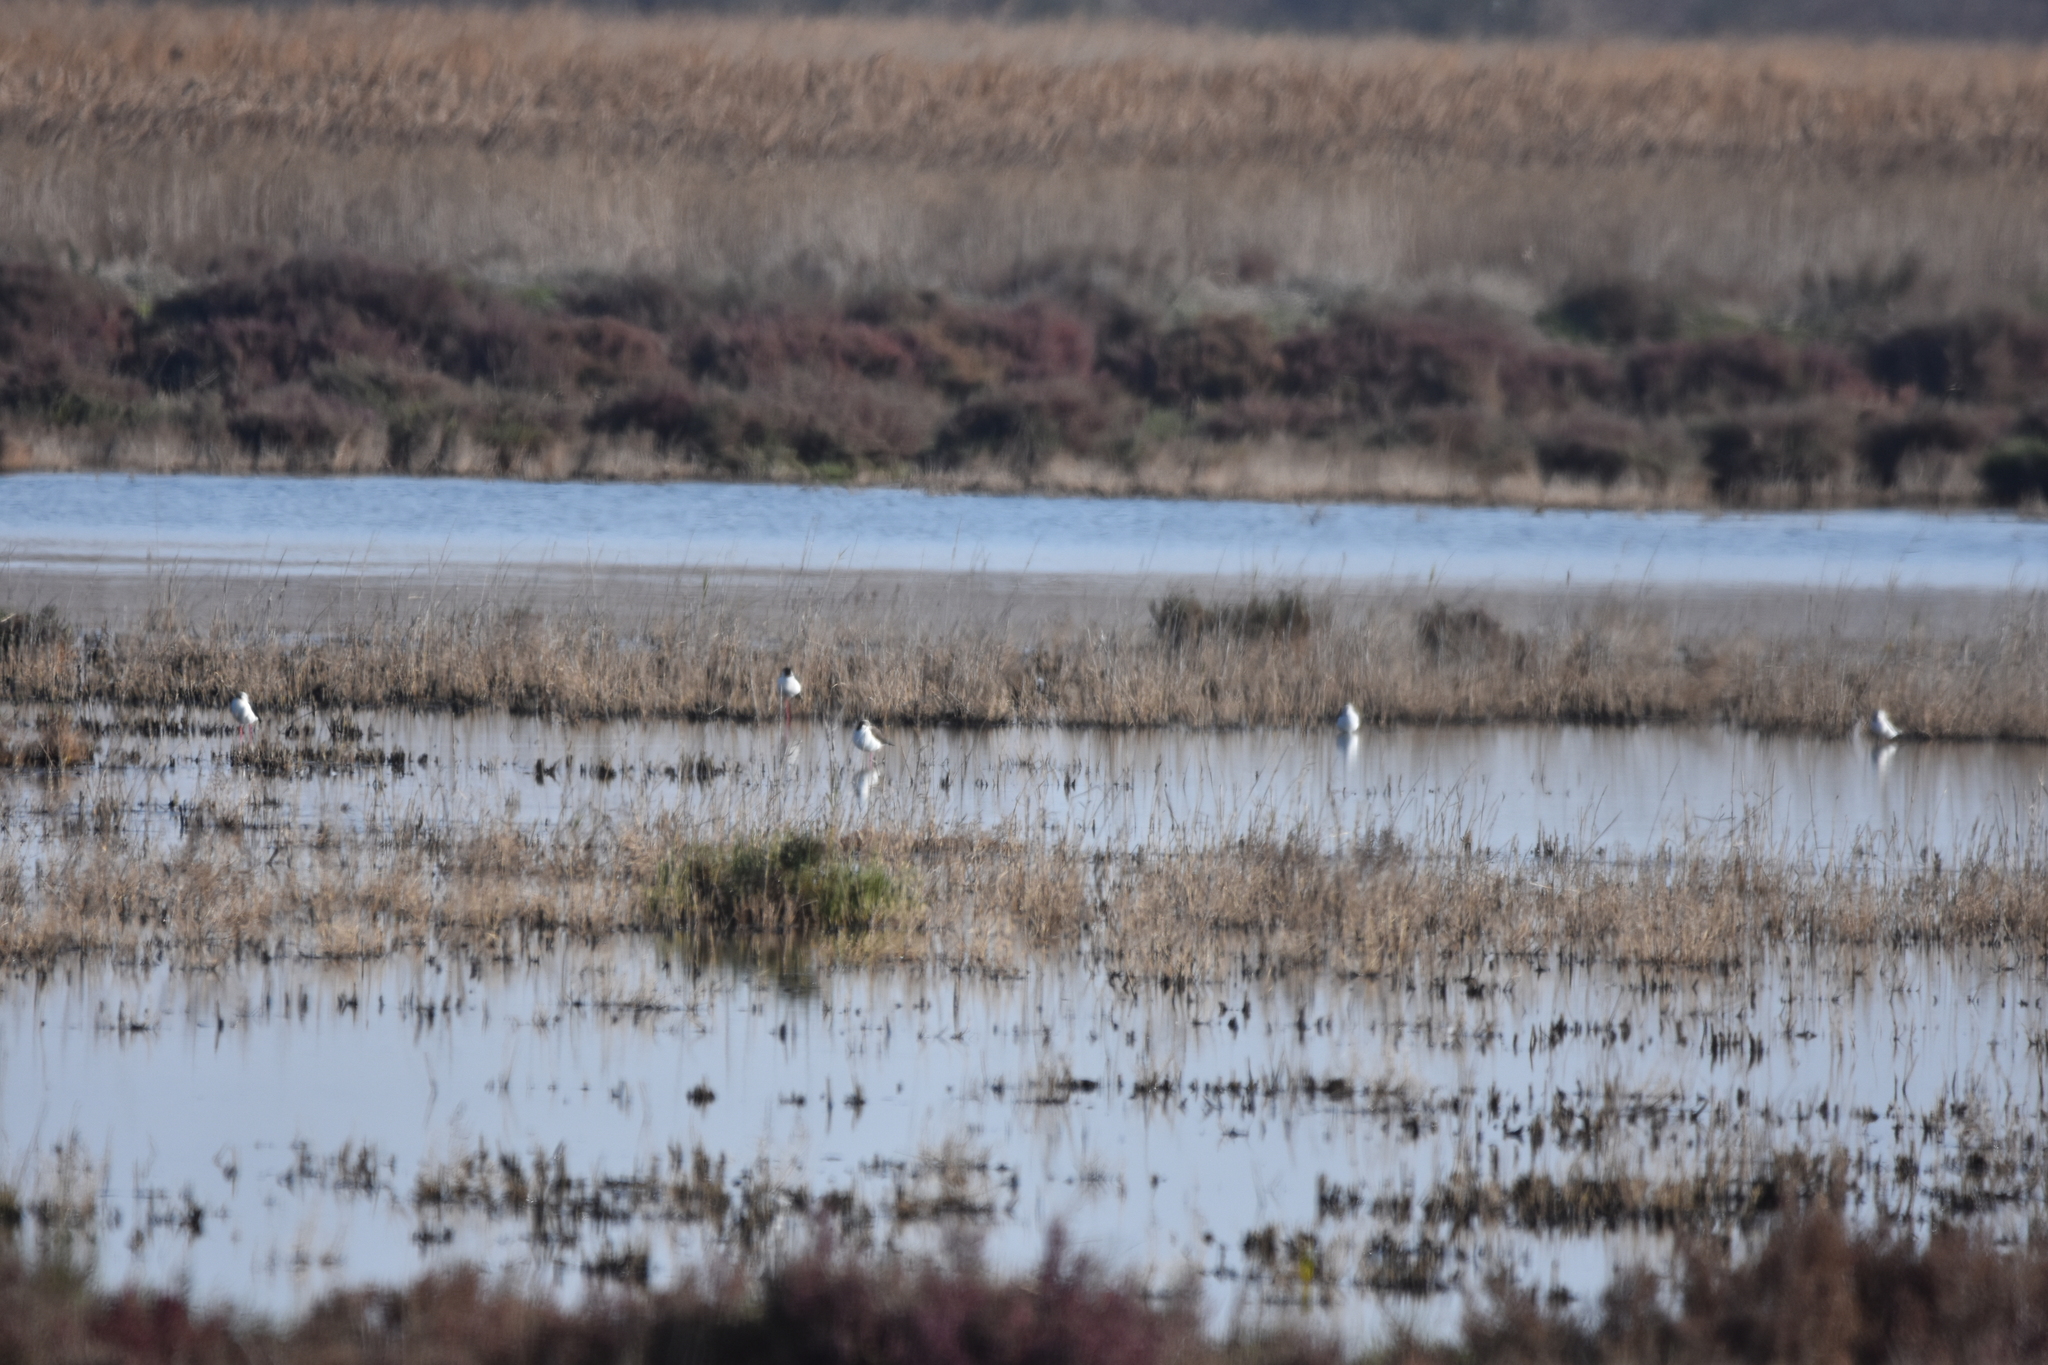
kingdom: Animalia
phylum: Chordata
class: Aves
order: Charadriiformes
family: Recurvirostridae
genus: Himantopus
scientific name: Himantopus himantopus
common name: Black-winged stilt
